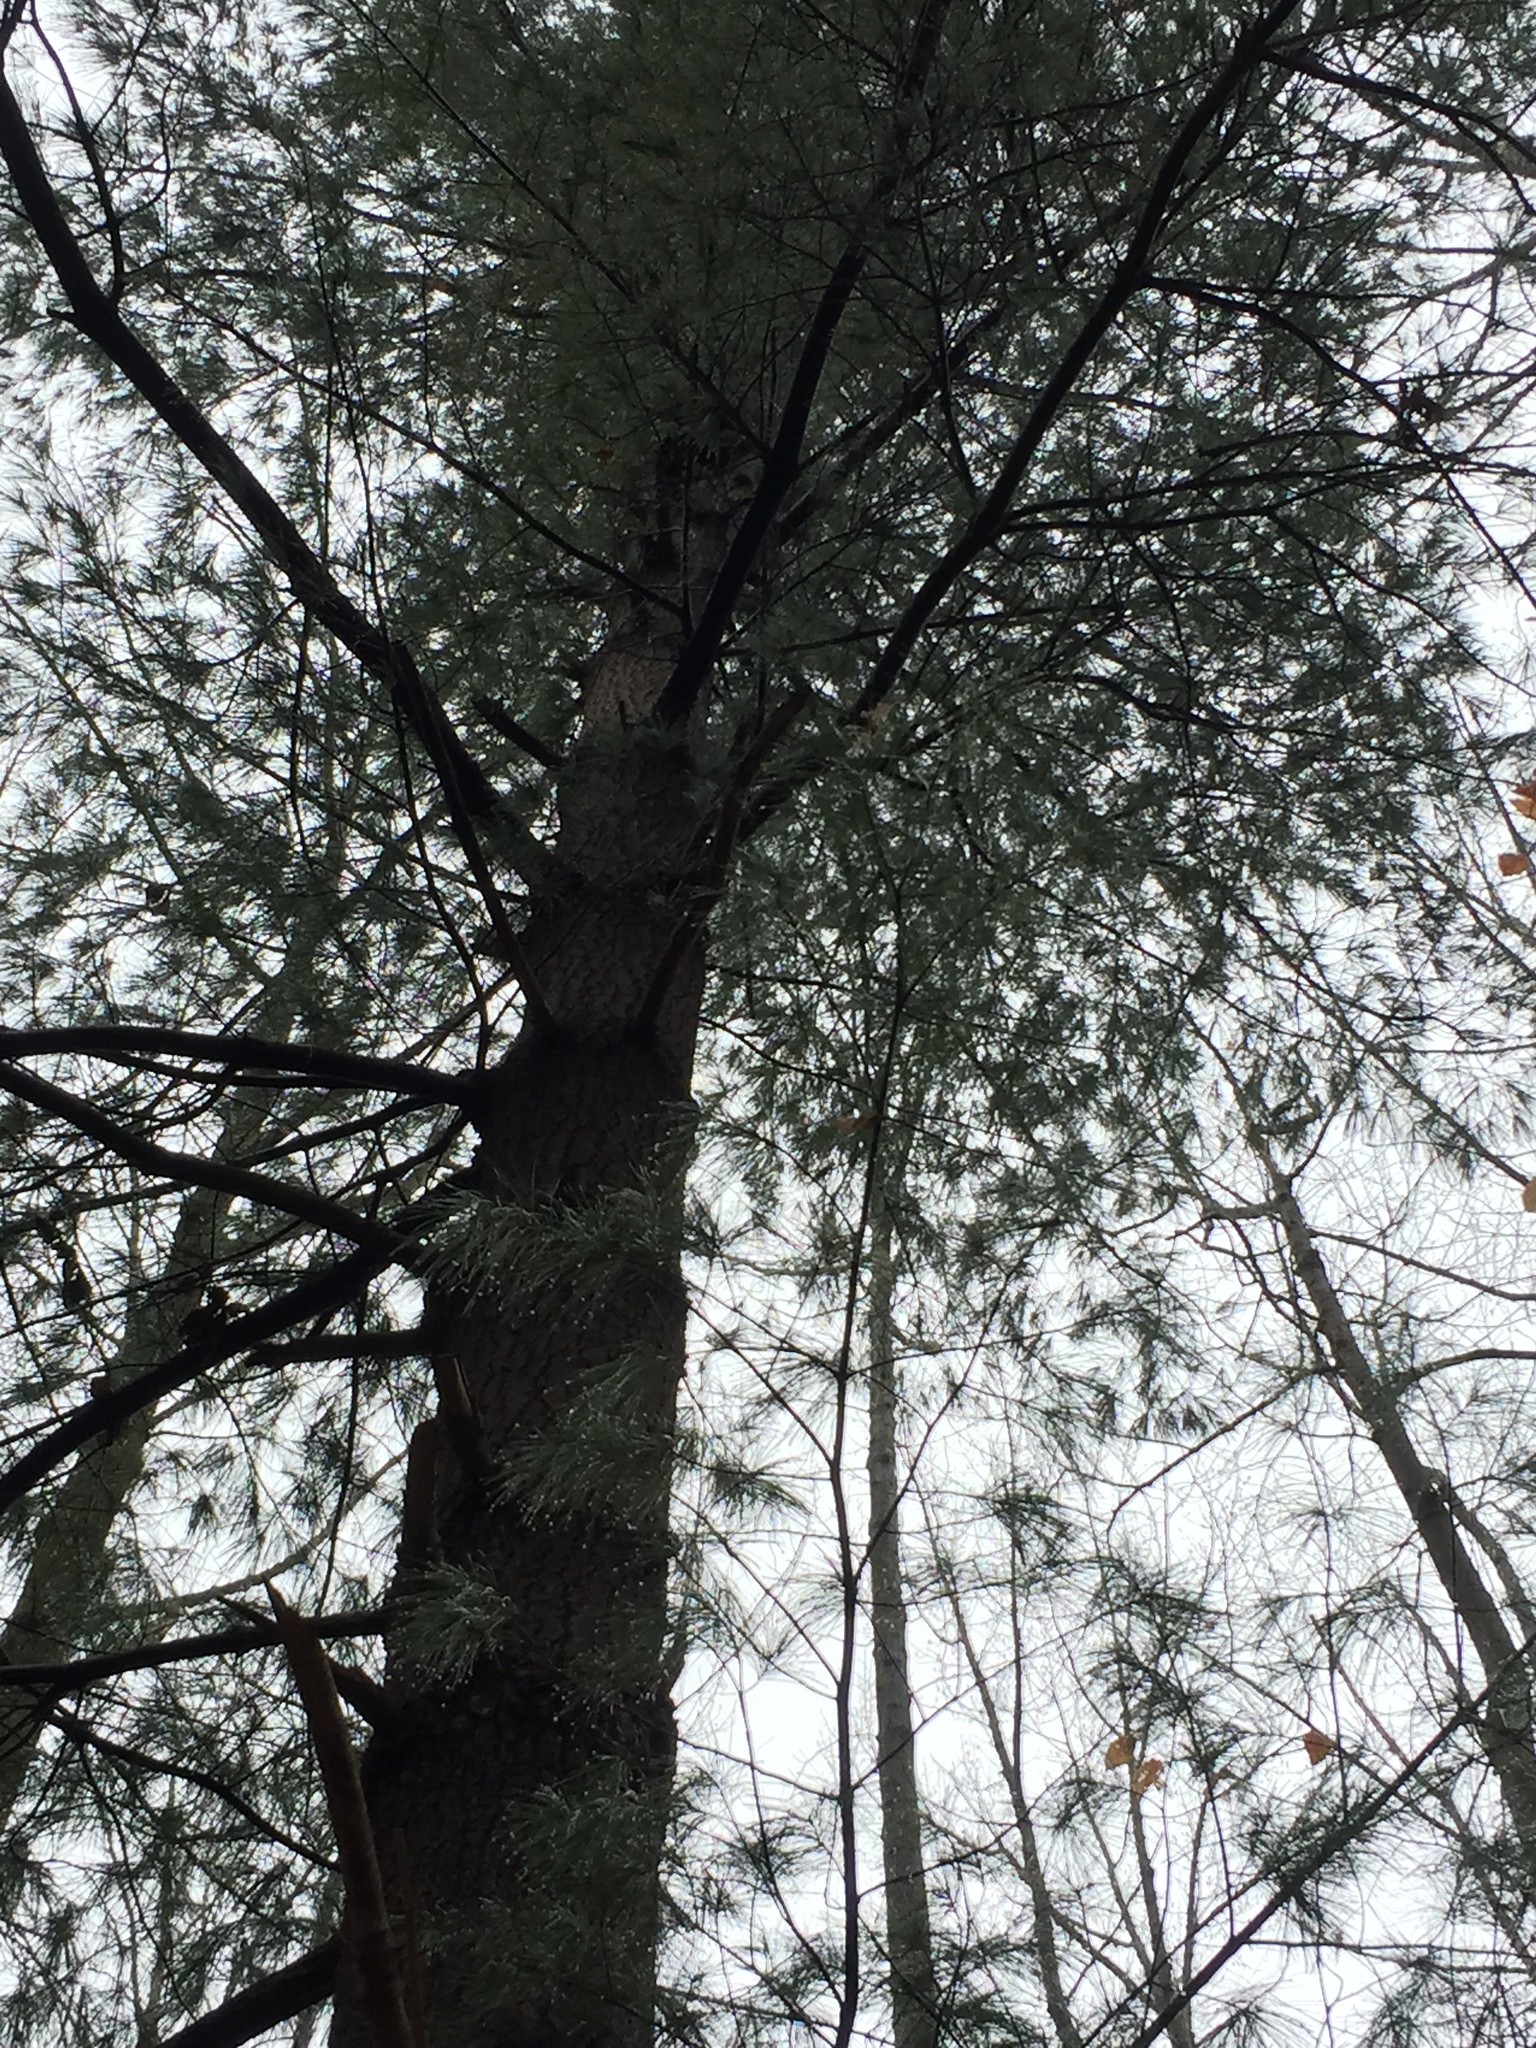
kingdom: Plantae
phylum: Tracheophyta
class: Pinopsida
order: Pinales
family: Pinaceae
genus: Pinus
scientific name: Pinus strobus
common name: Weymouth pine
